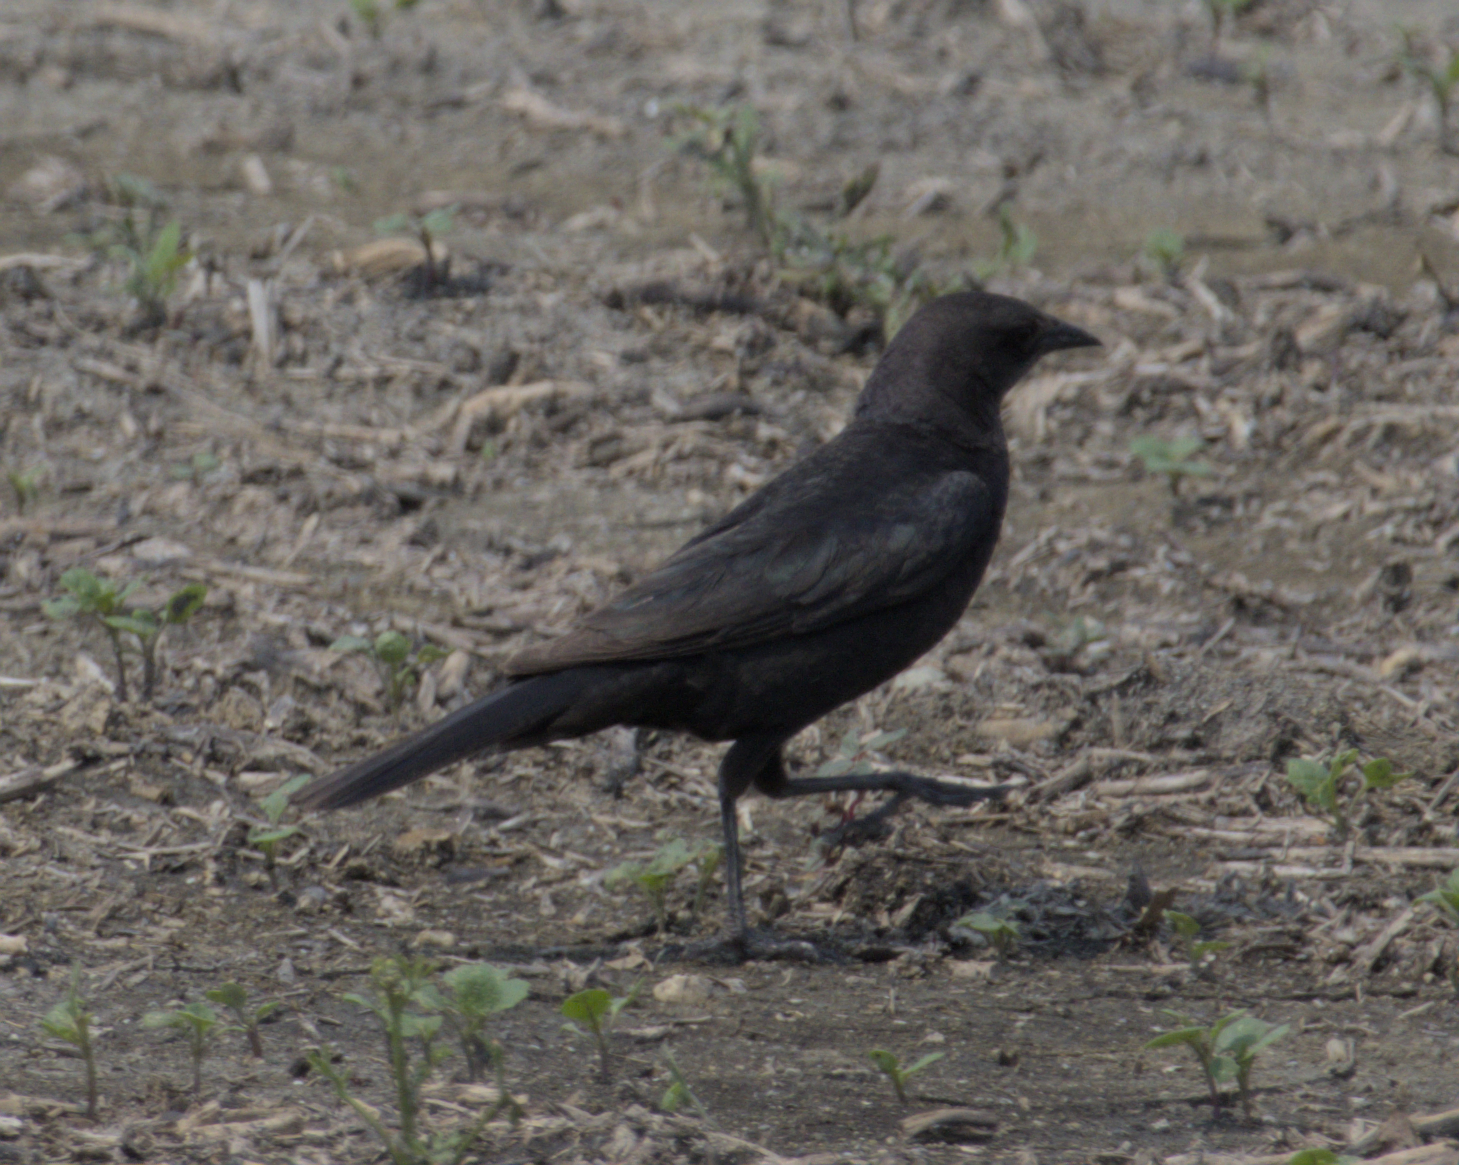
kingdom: Animalia
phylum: Chordata
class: Aves
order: Passeriformes
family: Icteridae
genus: Euphagus
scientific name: Euphagus cyanocephalus
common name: Brewer's blackbird
